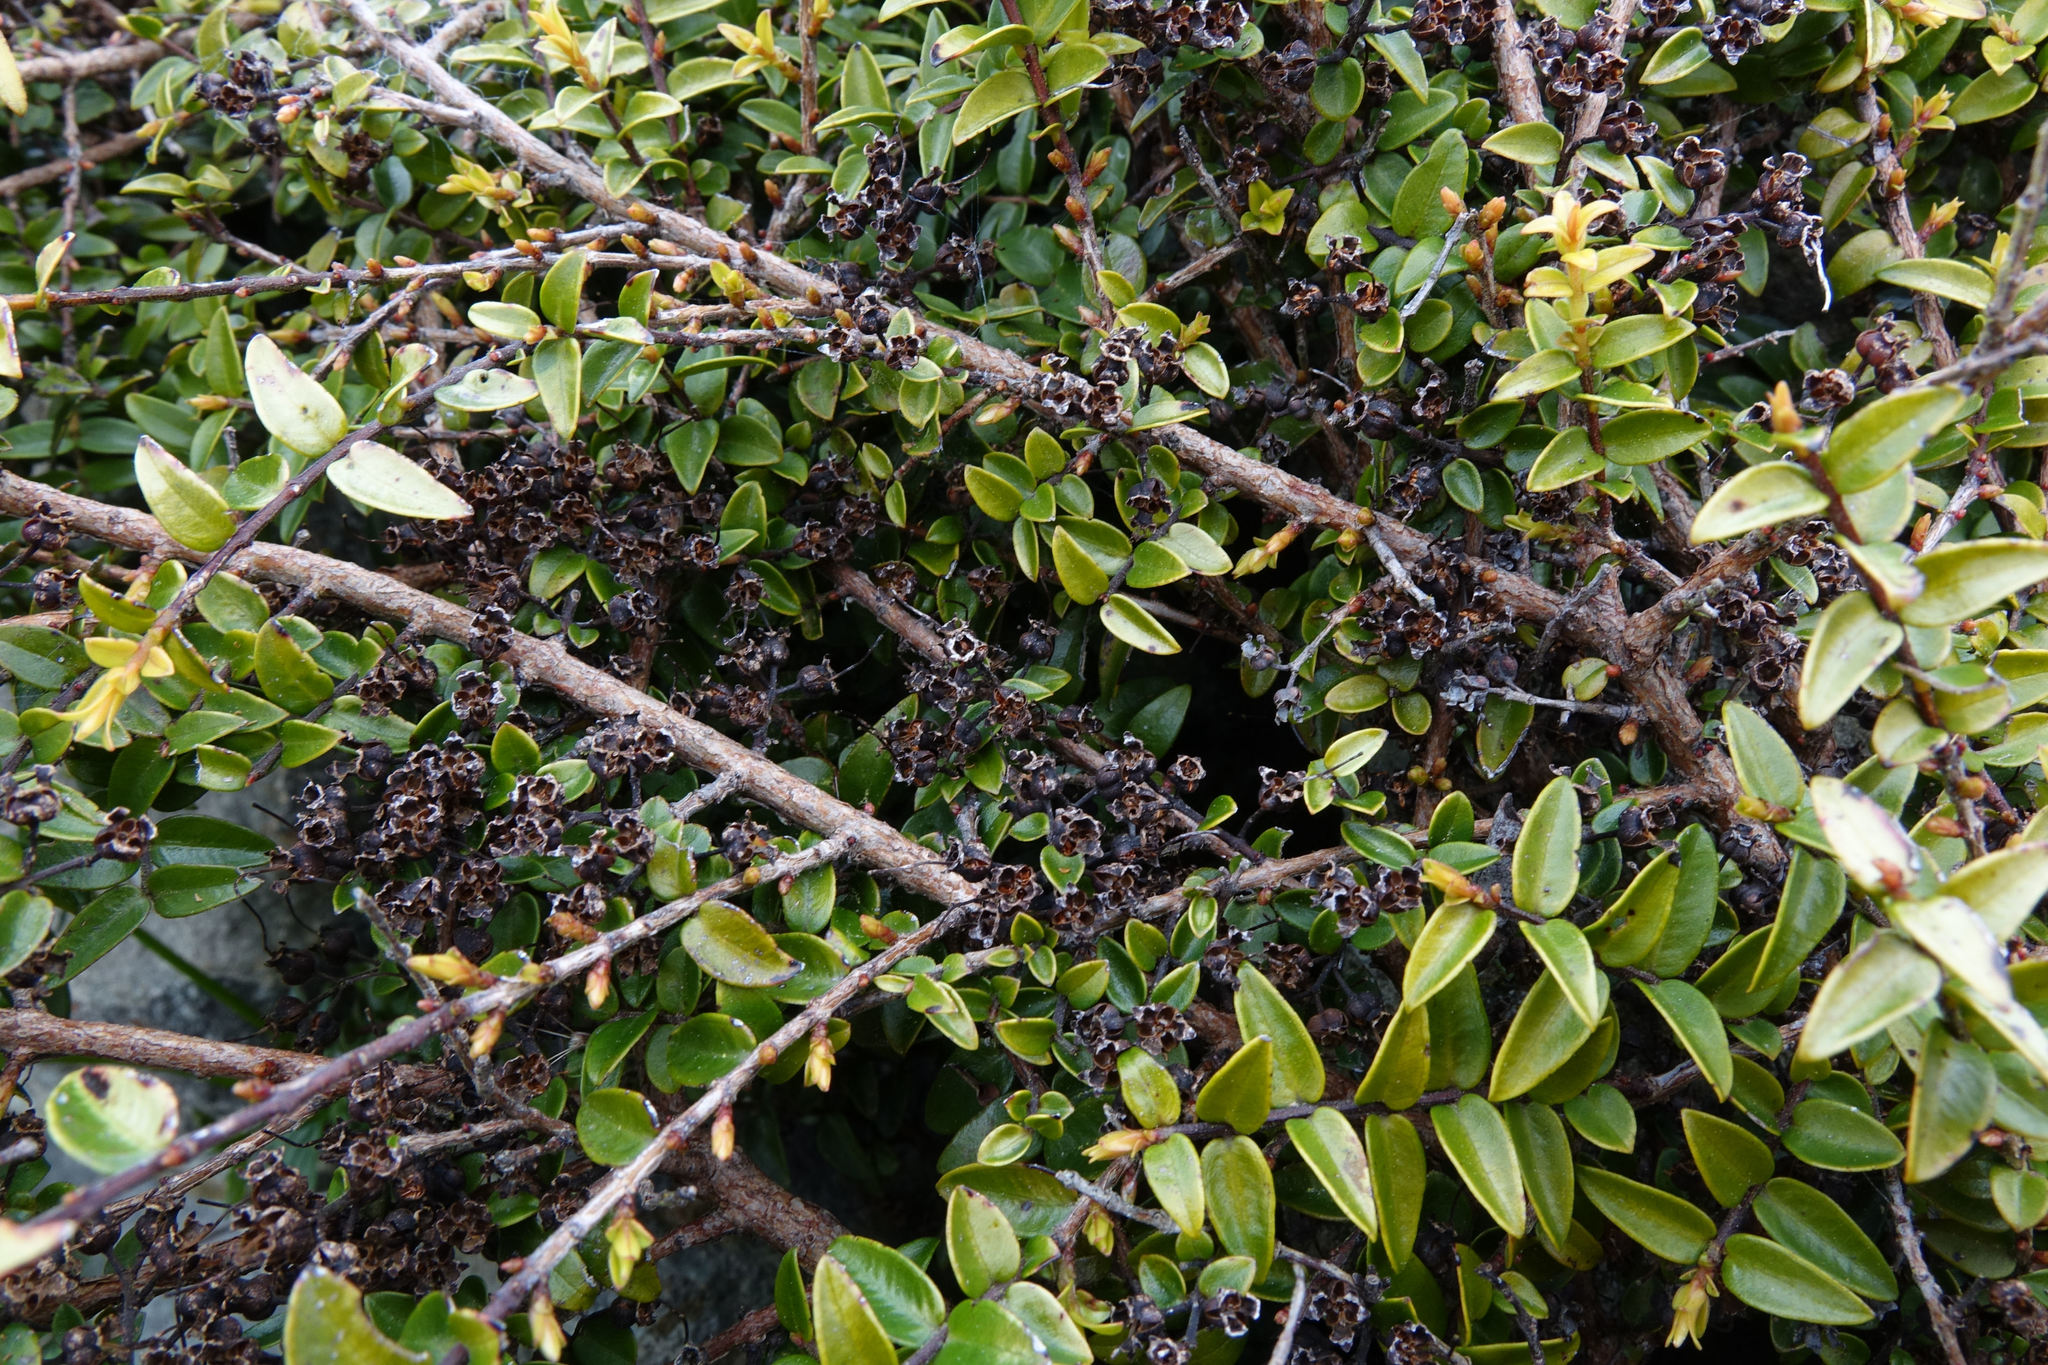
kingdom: Plantae
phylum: Tracheophyta
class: Magnoliopsida
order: Myrtales
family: Myrtaceae
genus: Metrosideros
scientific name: Metrosideros diffusa
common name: Small ratavine
